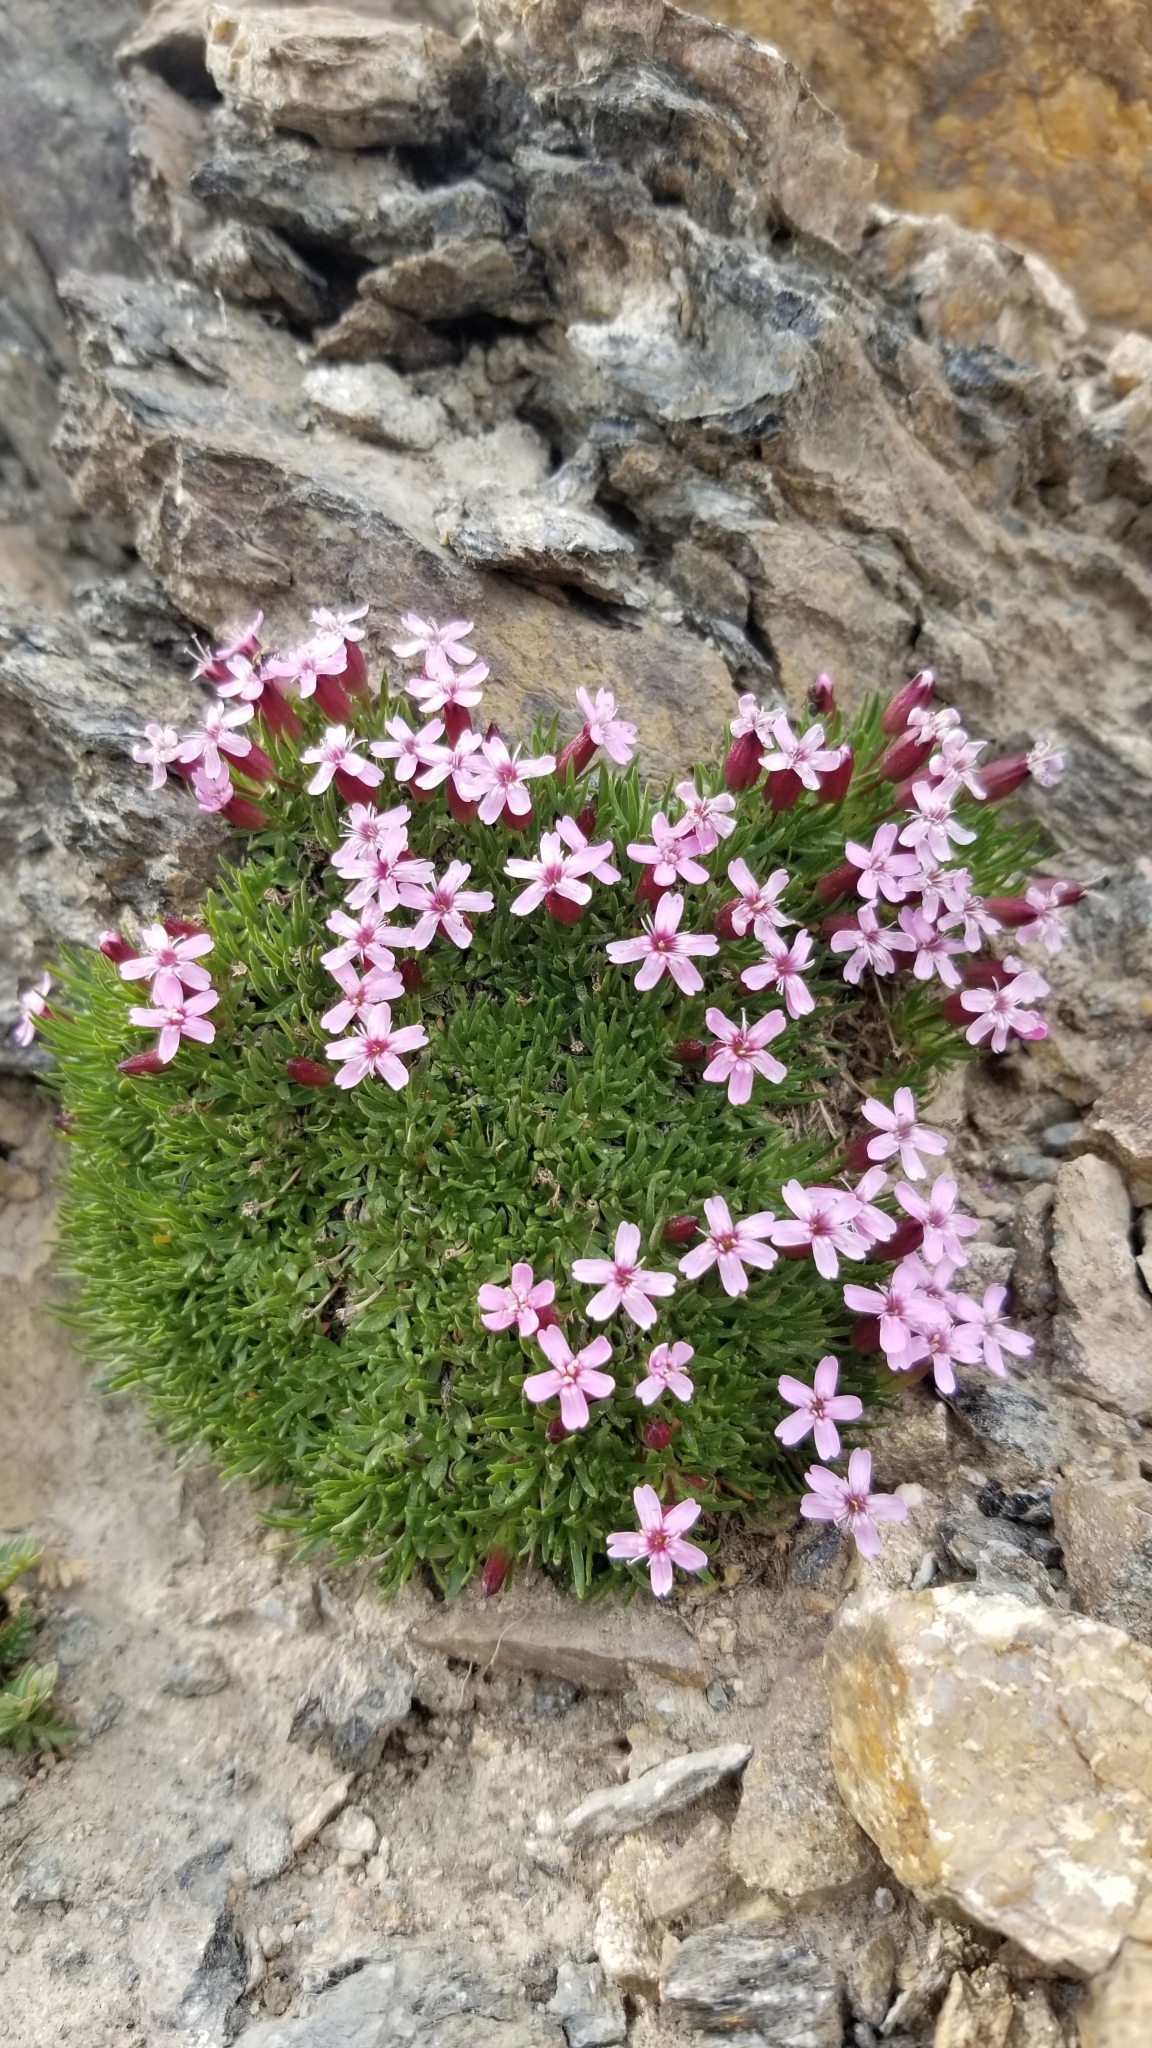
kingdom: Plantae
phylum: Tracheophyta
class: Magnoliopsida
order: Caryophyllales
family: Caryophyllaceae
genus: Silene
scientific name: Silene acaulis
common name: Moss campion
